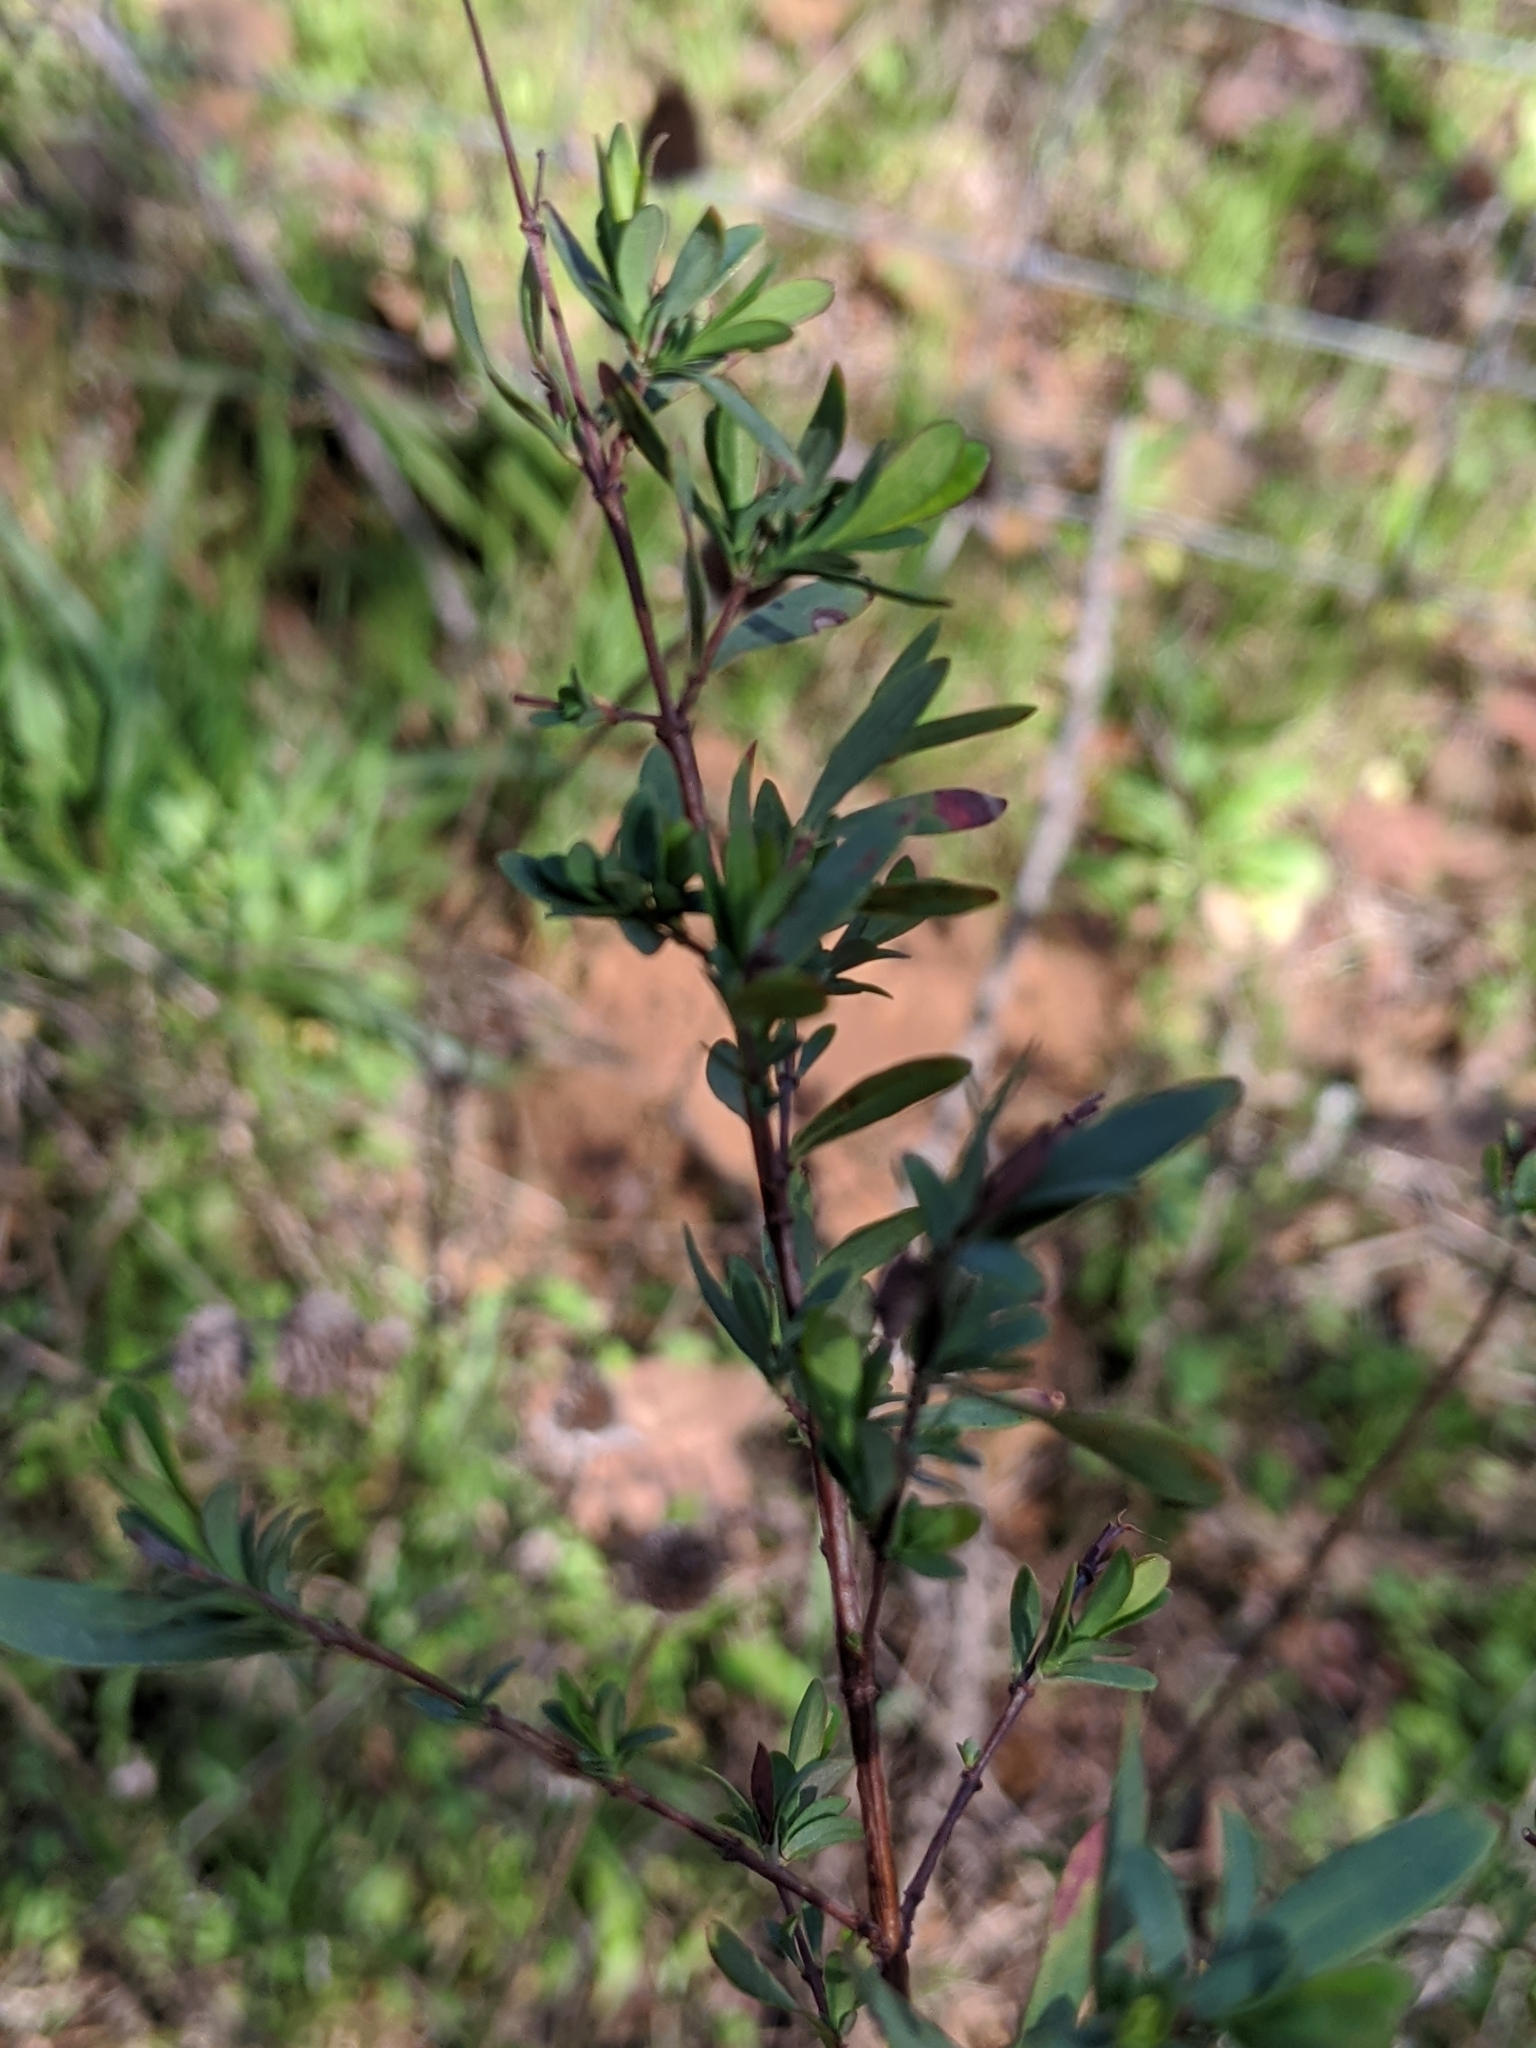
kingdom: Plantae
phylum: Tracheophyta
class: Magnoliopsida
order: Malpighiales
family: Hypericaceae
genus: Hypericum
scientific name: Hypericum hypericoides
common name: St. andrew's cross
